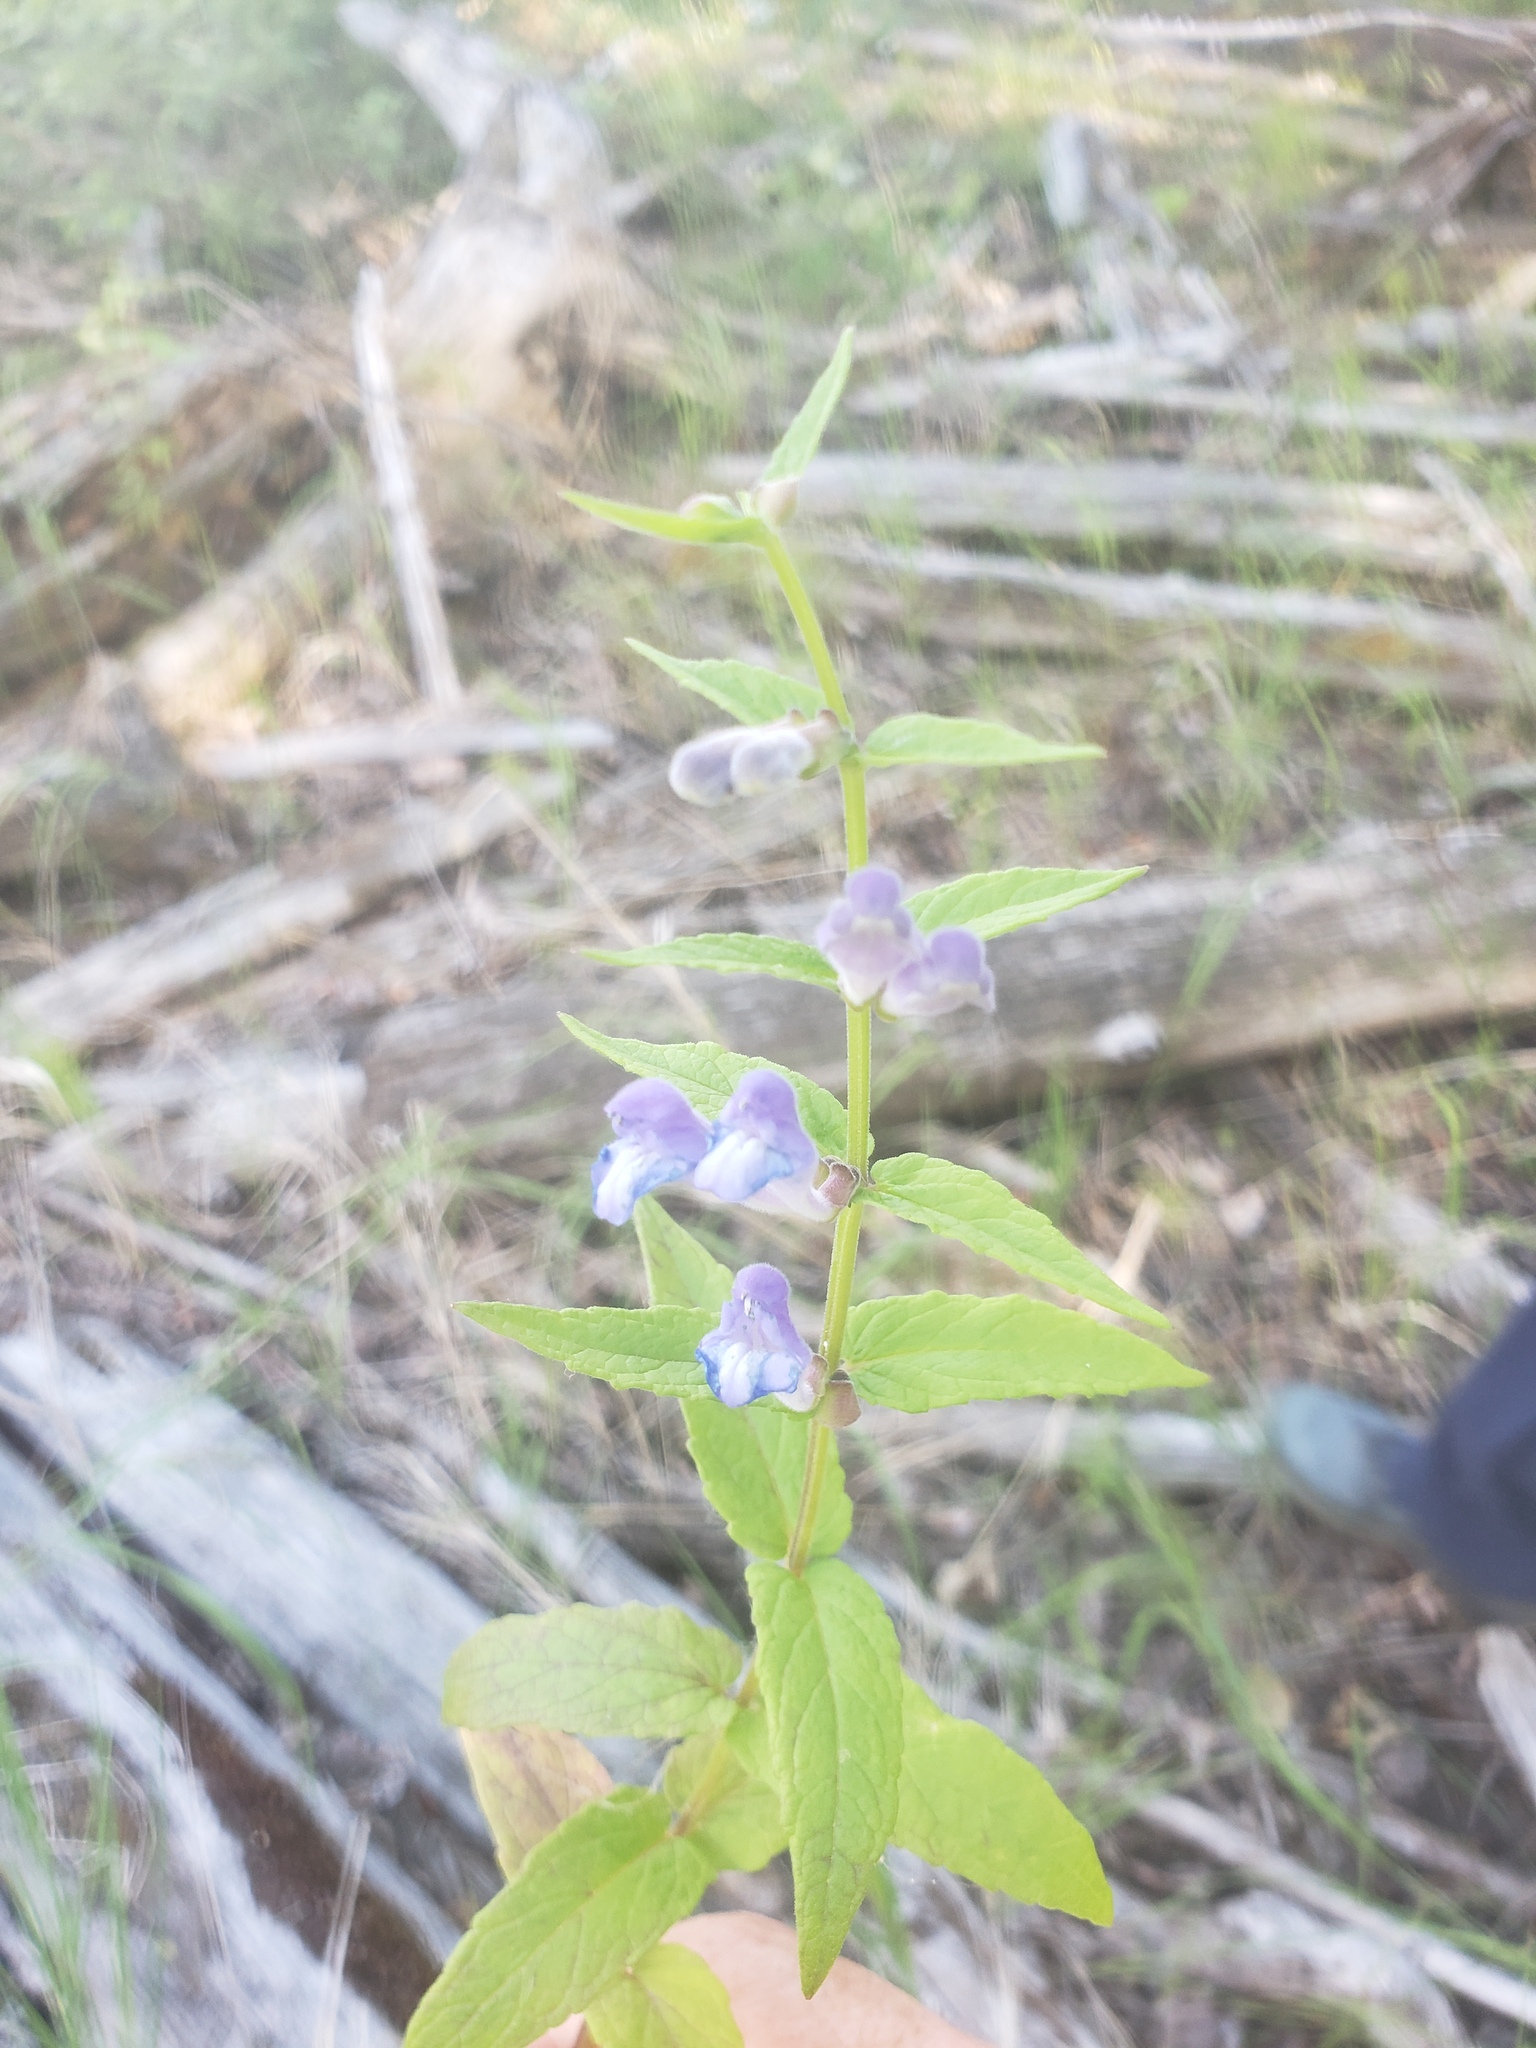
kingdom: Plantae
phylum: Tracheophyta
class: Magnoliopsida
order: Lamiales
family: Lamiaceae
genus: Scutellaria
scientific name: Scutellaria galericulata
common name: Skullcap
